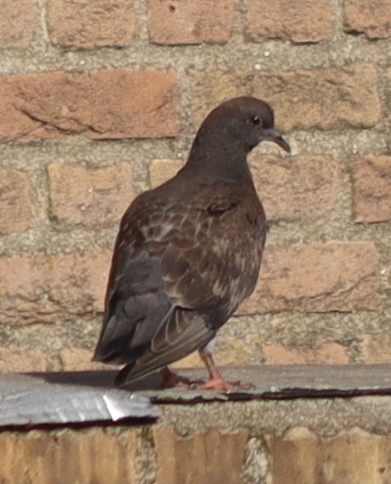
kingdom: Animalia
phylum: Chordata
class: Aves
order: Columbiformes
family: Columbidae
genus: Columba
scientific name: Columba livia
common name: Rock pigeon
